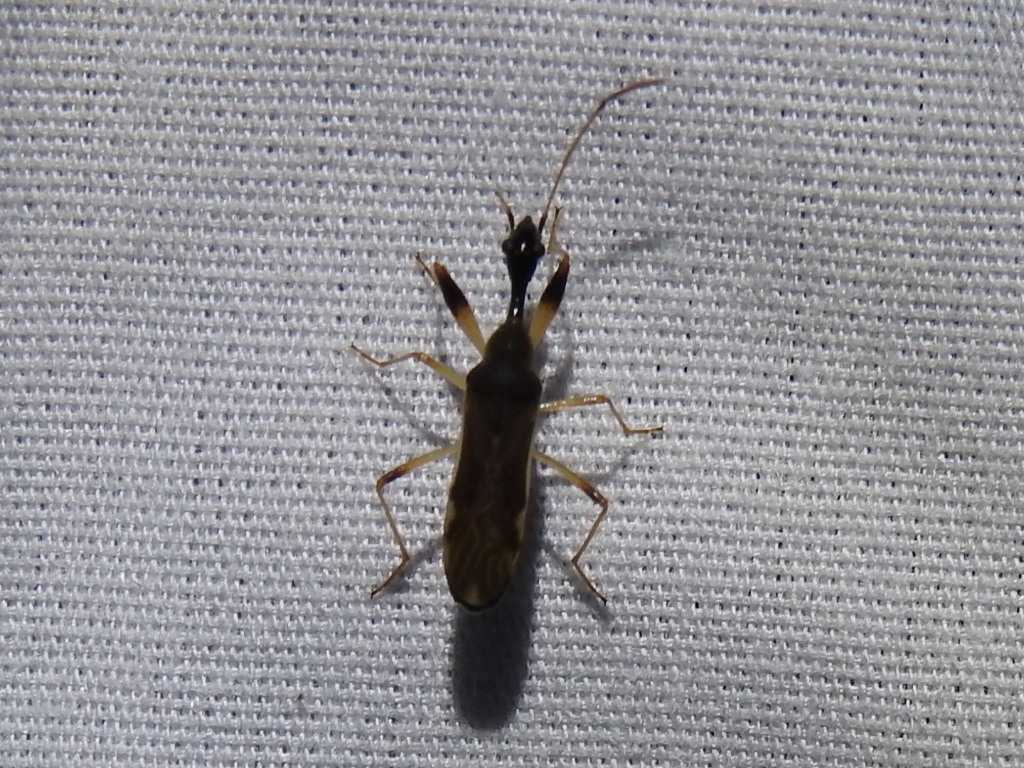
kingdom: Animalia
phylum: Arthropoda
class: Insecta
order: Hemiptera
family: Rhyparochromidae
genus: Myodocha
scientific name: Myodocha serripes
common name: Long-necked seed bug
